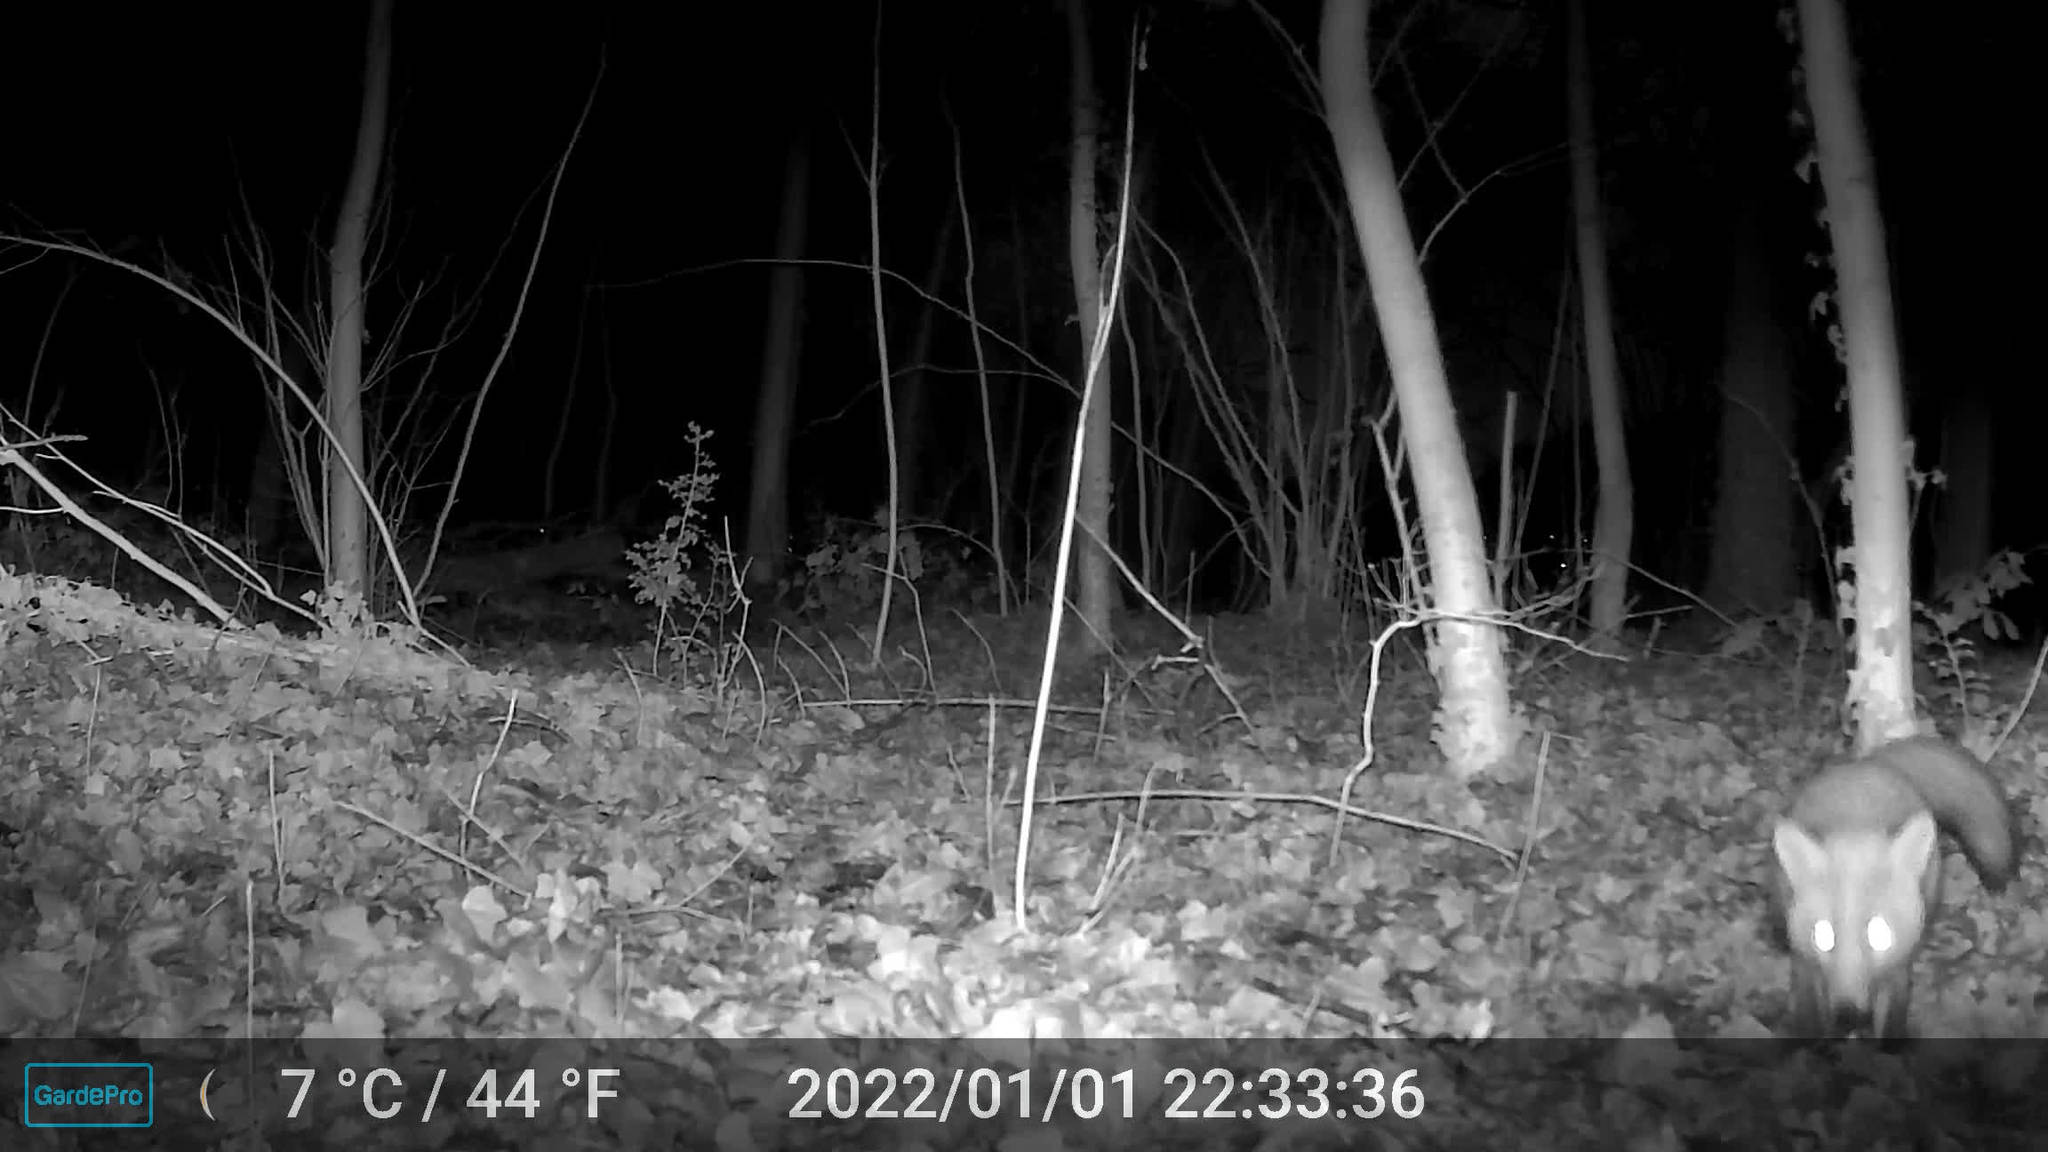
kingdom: Animalia
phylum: Chordata
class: Mammalia
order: Carnivora
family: Canidae
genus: Vulpes
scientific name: Vulpes vulpes
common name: Red fox
